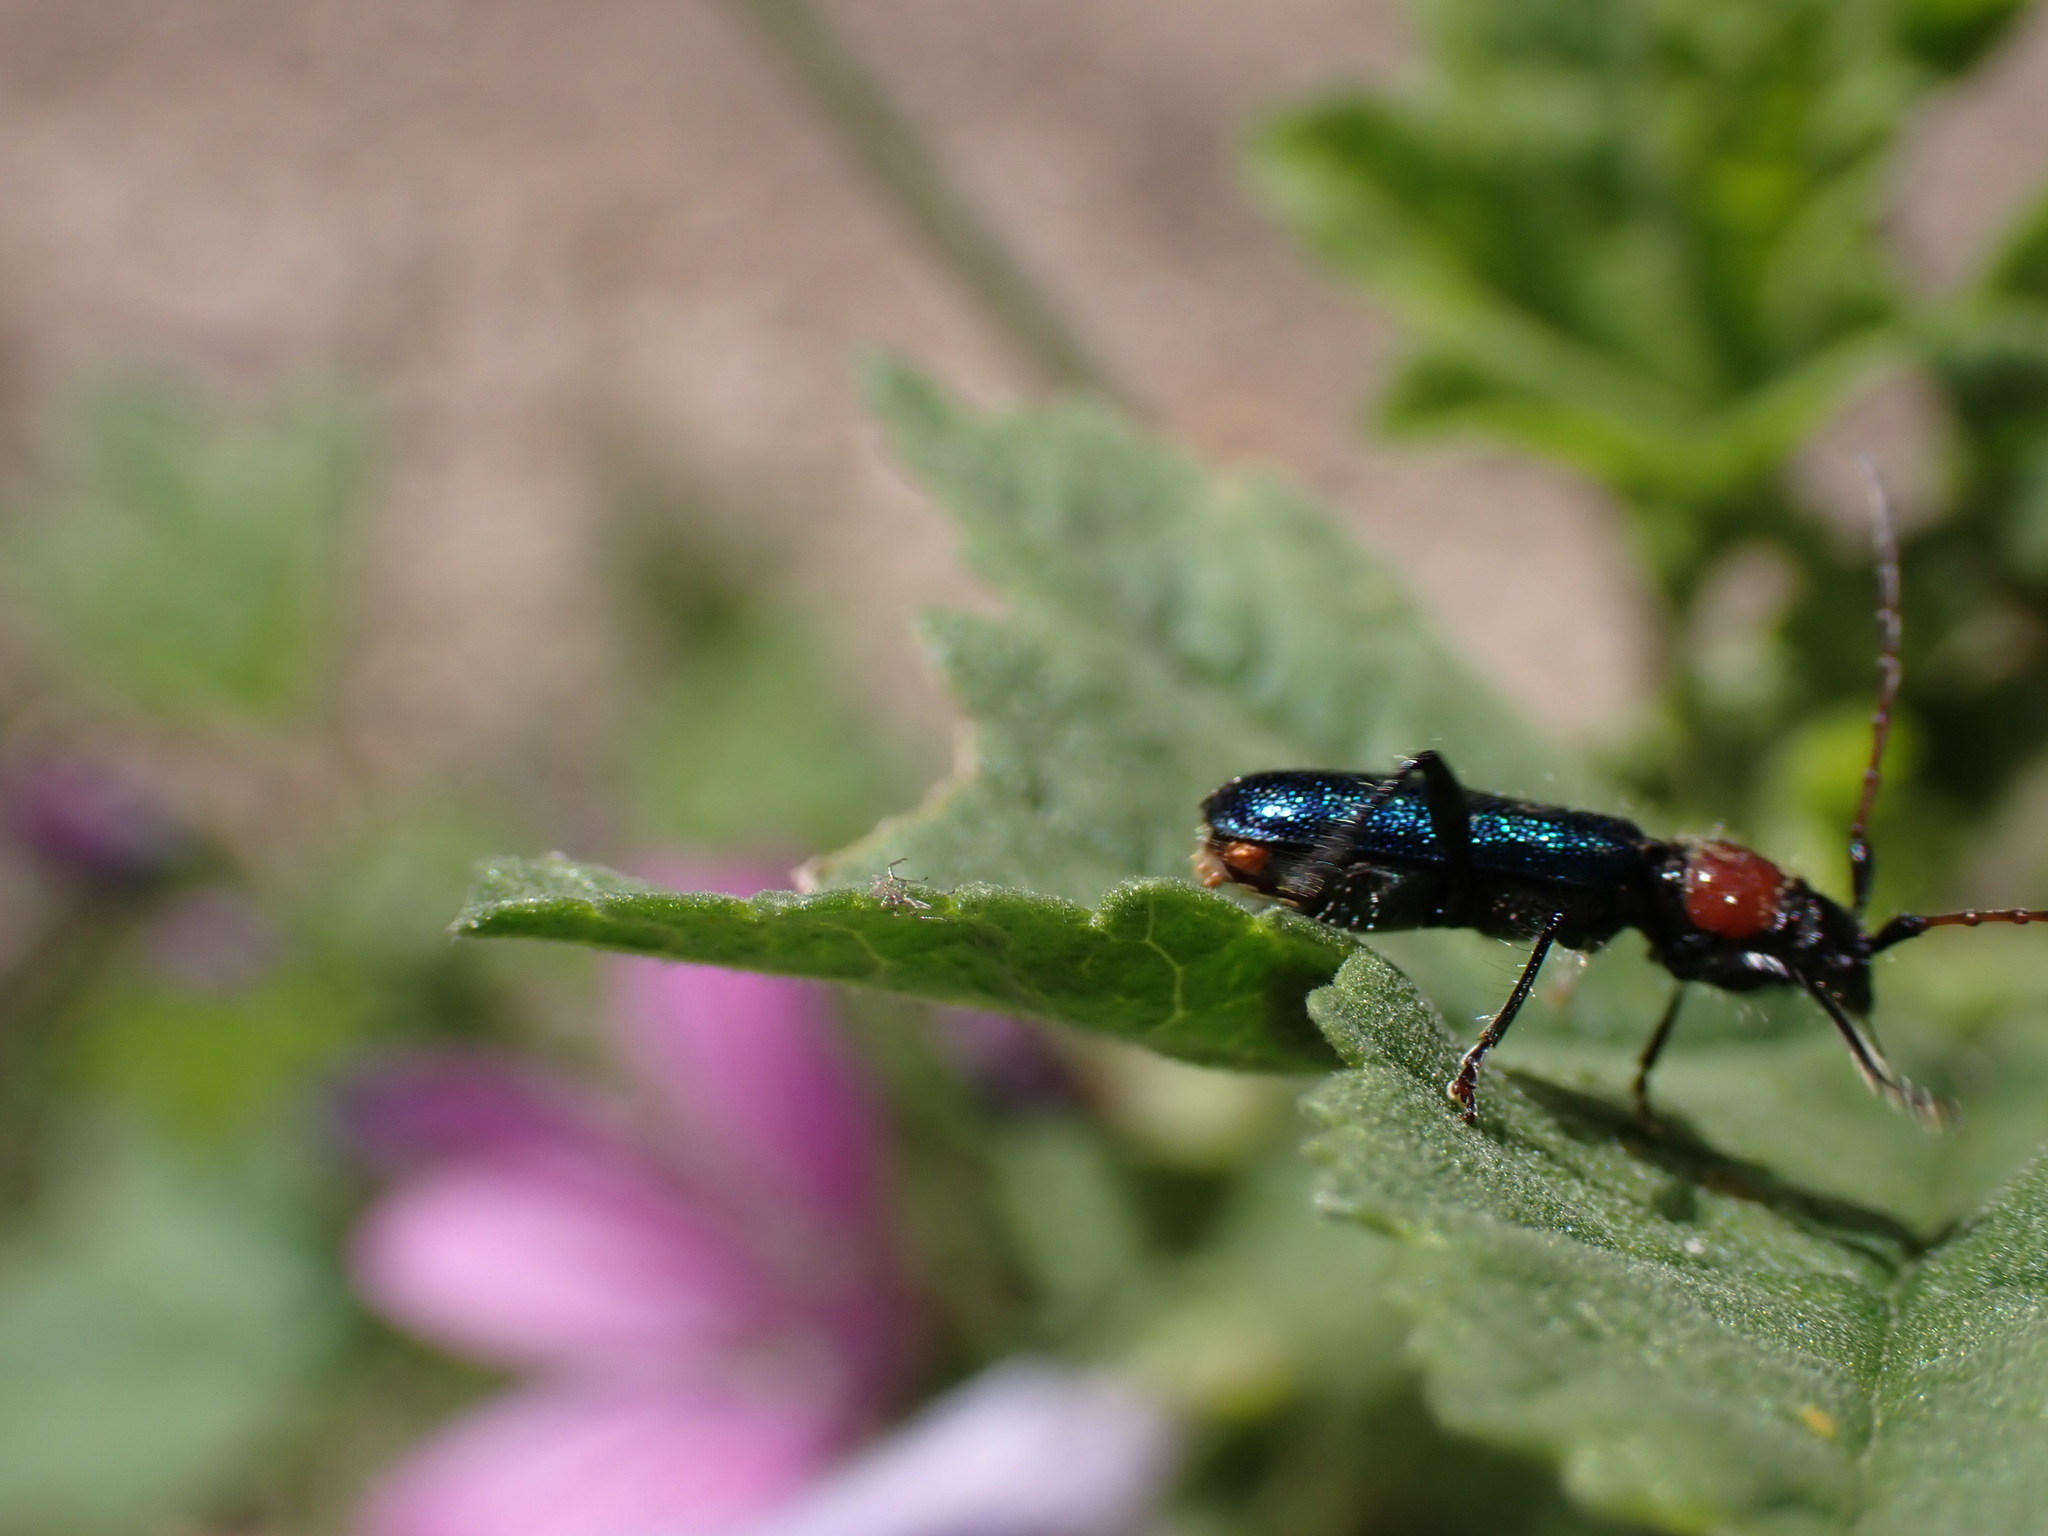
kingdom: Animalia
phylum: Arthropoda
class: Insecta
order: Coleoptera
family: Cerambycidae
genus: Certallum
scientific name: Certallum ebulinum
